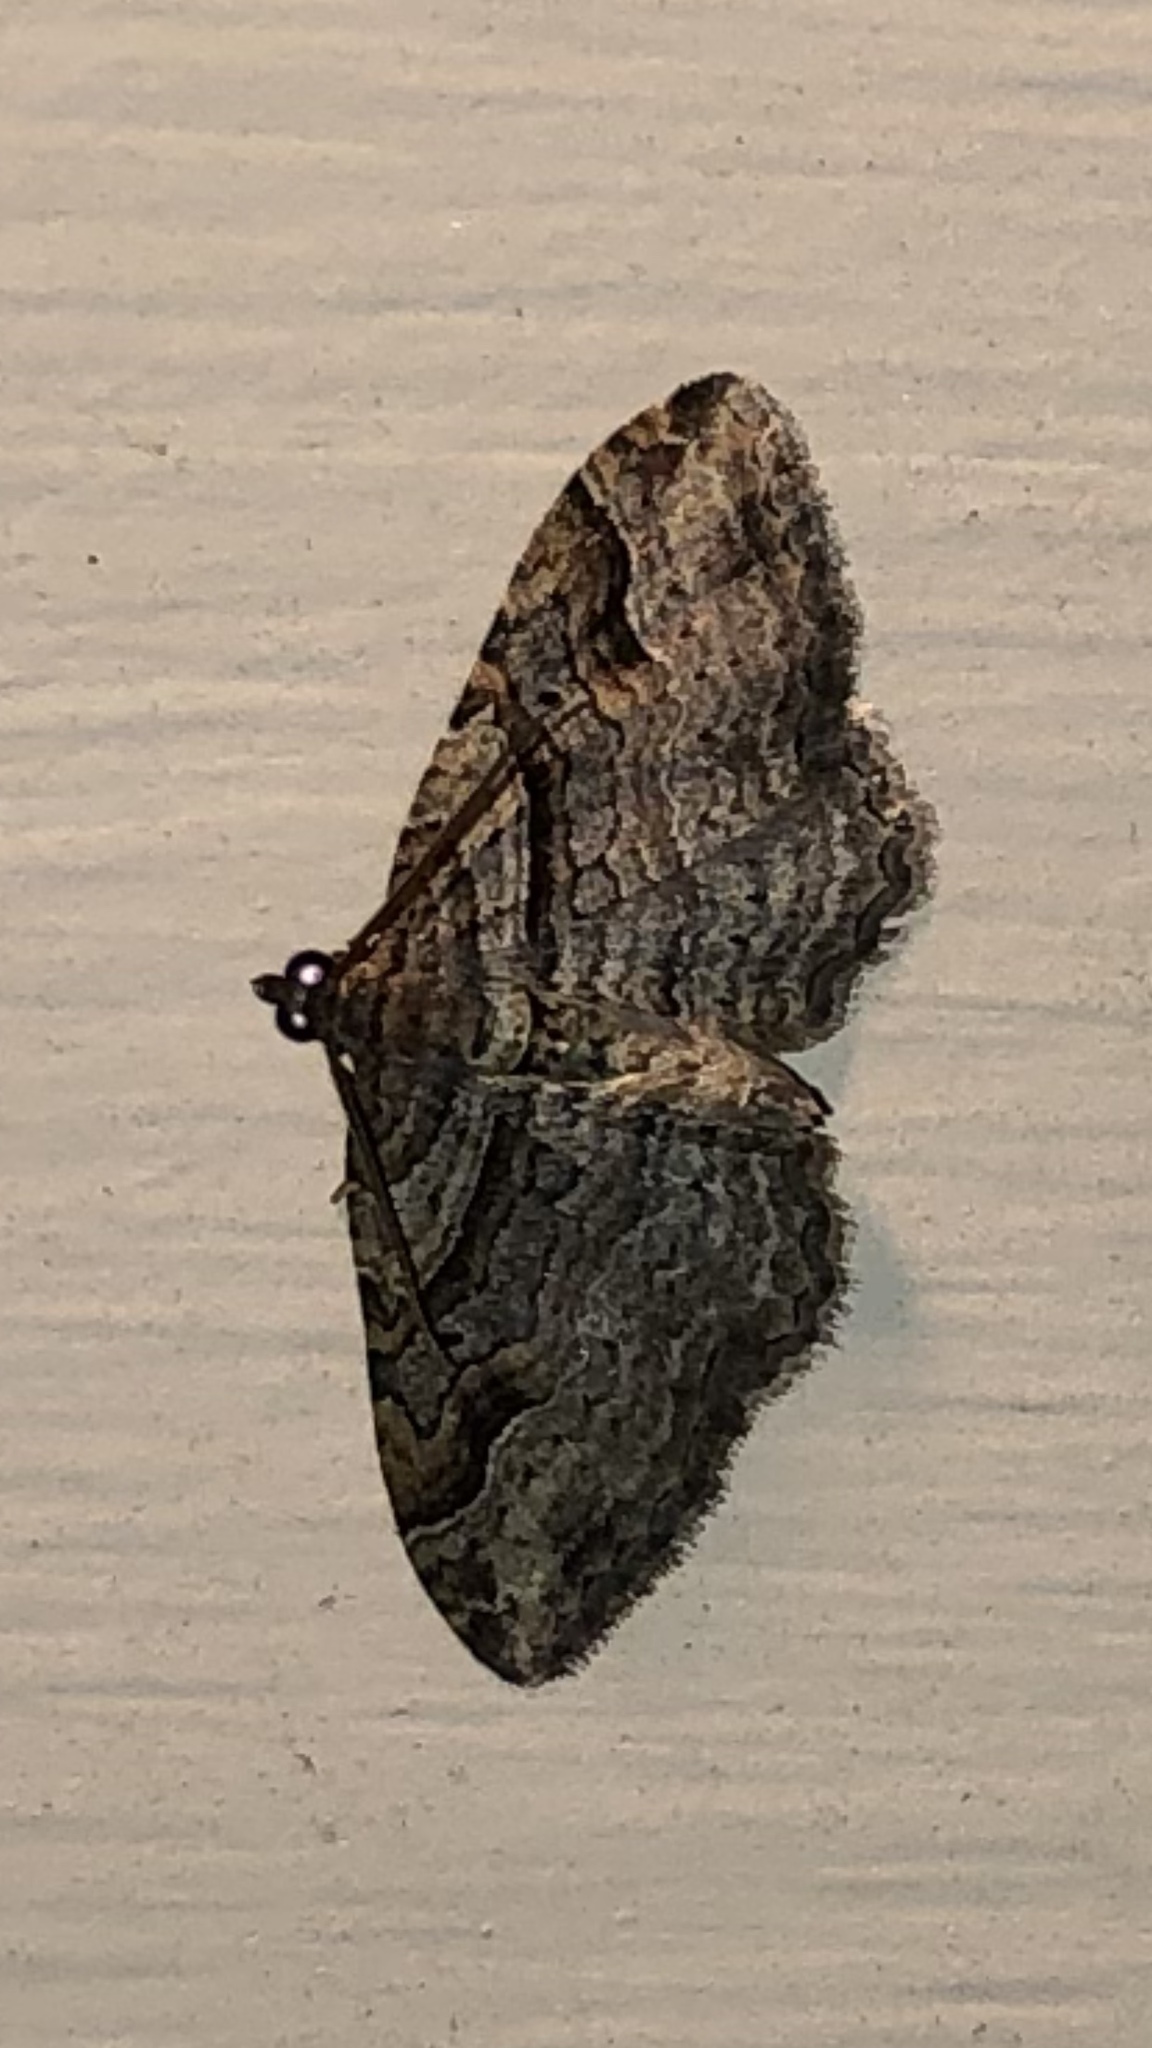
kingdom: Animalia
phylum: Arthropoda
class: Insecta
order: Lepidoptera
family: Geometridae
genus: Costaconvexa
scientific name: Costaconvexa centrostrigaria
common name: Bent-line carpet
